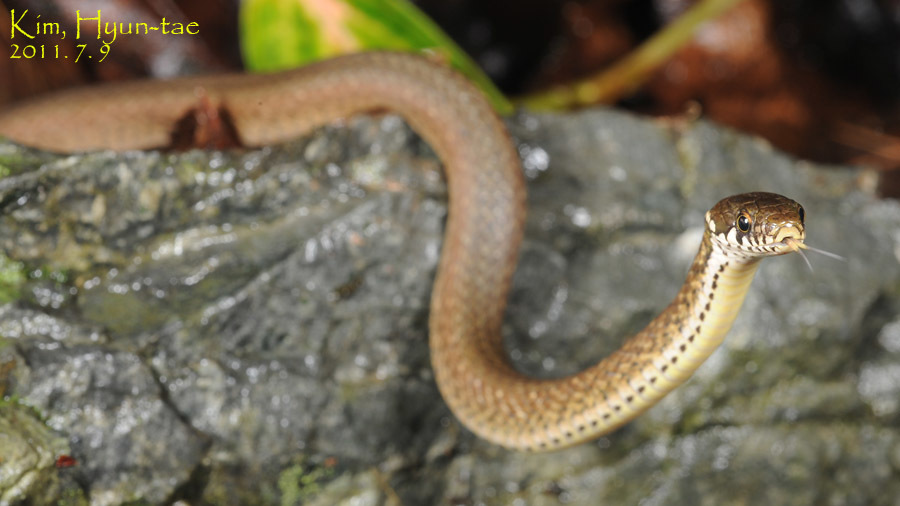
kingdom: Animalia
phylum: Chordata
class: Squamata
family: Colubridae
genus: Hebius
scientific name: Hebius vibakari
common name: Japanese keelback
